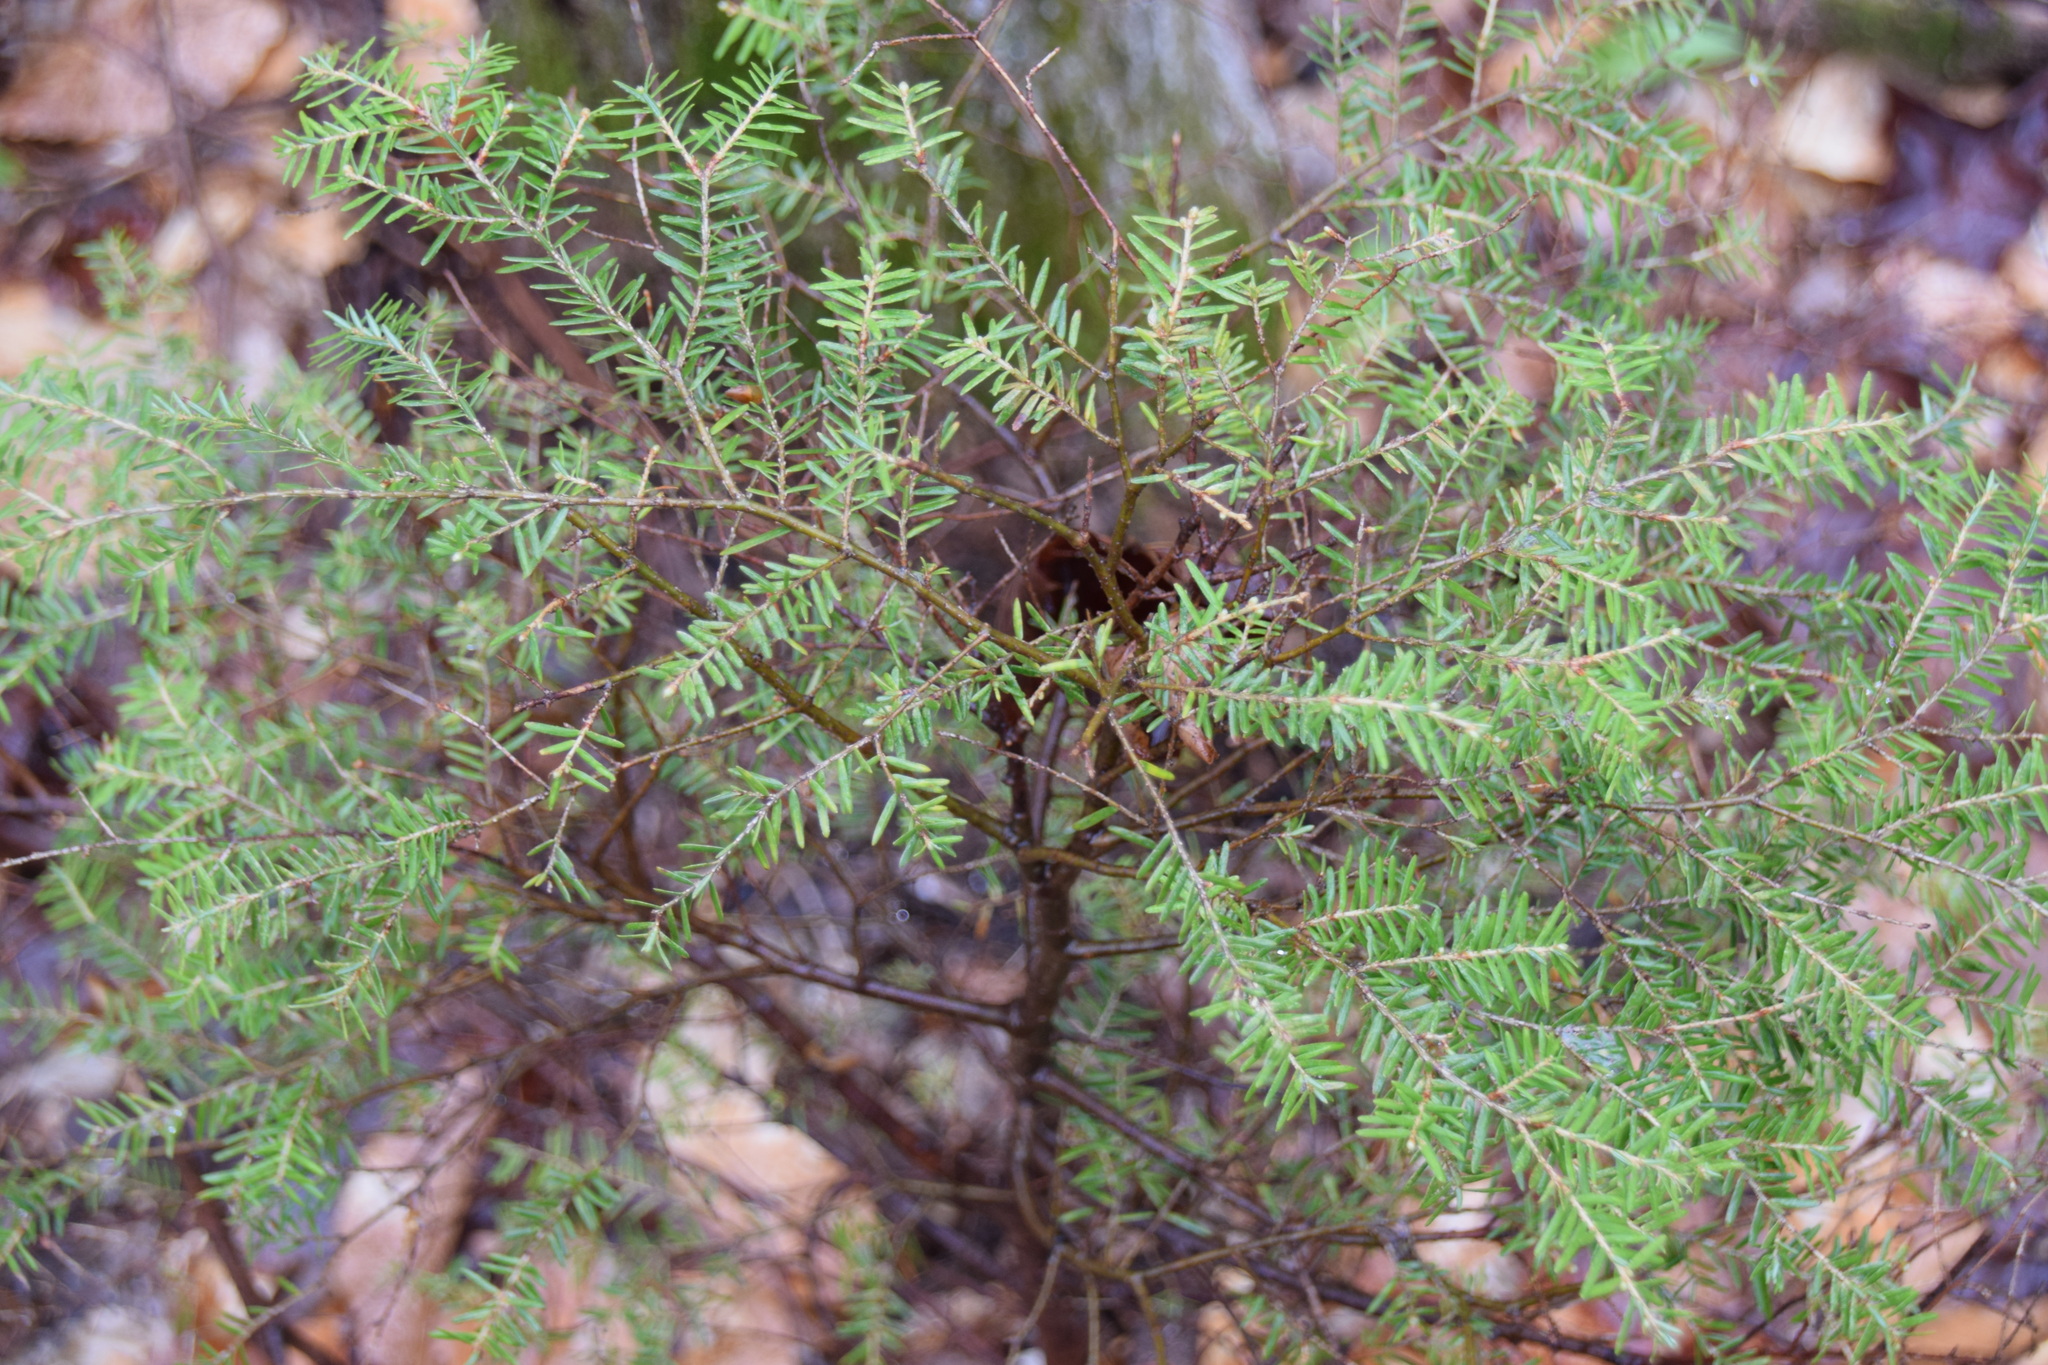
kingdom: Plantae
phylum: Tracheophyta
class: Pinopsida
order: Pinales
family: Pinaceae
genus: Tsuga
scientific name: Tsuga canadensis
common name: Eastern hemlock
